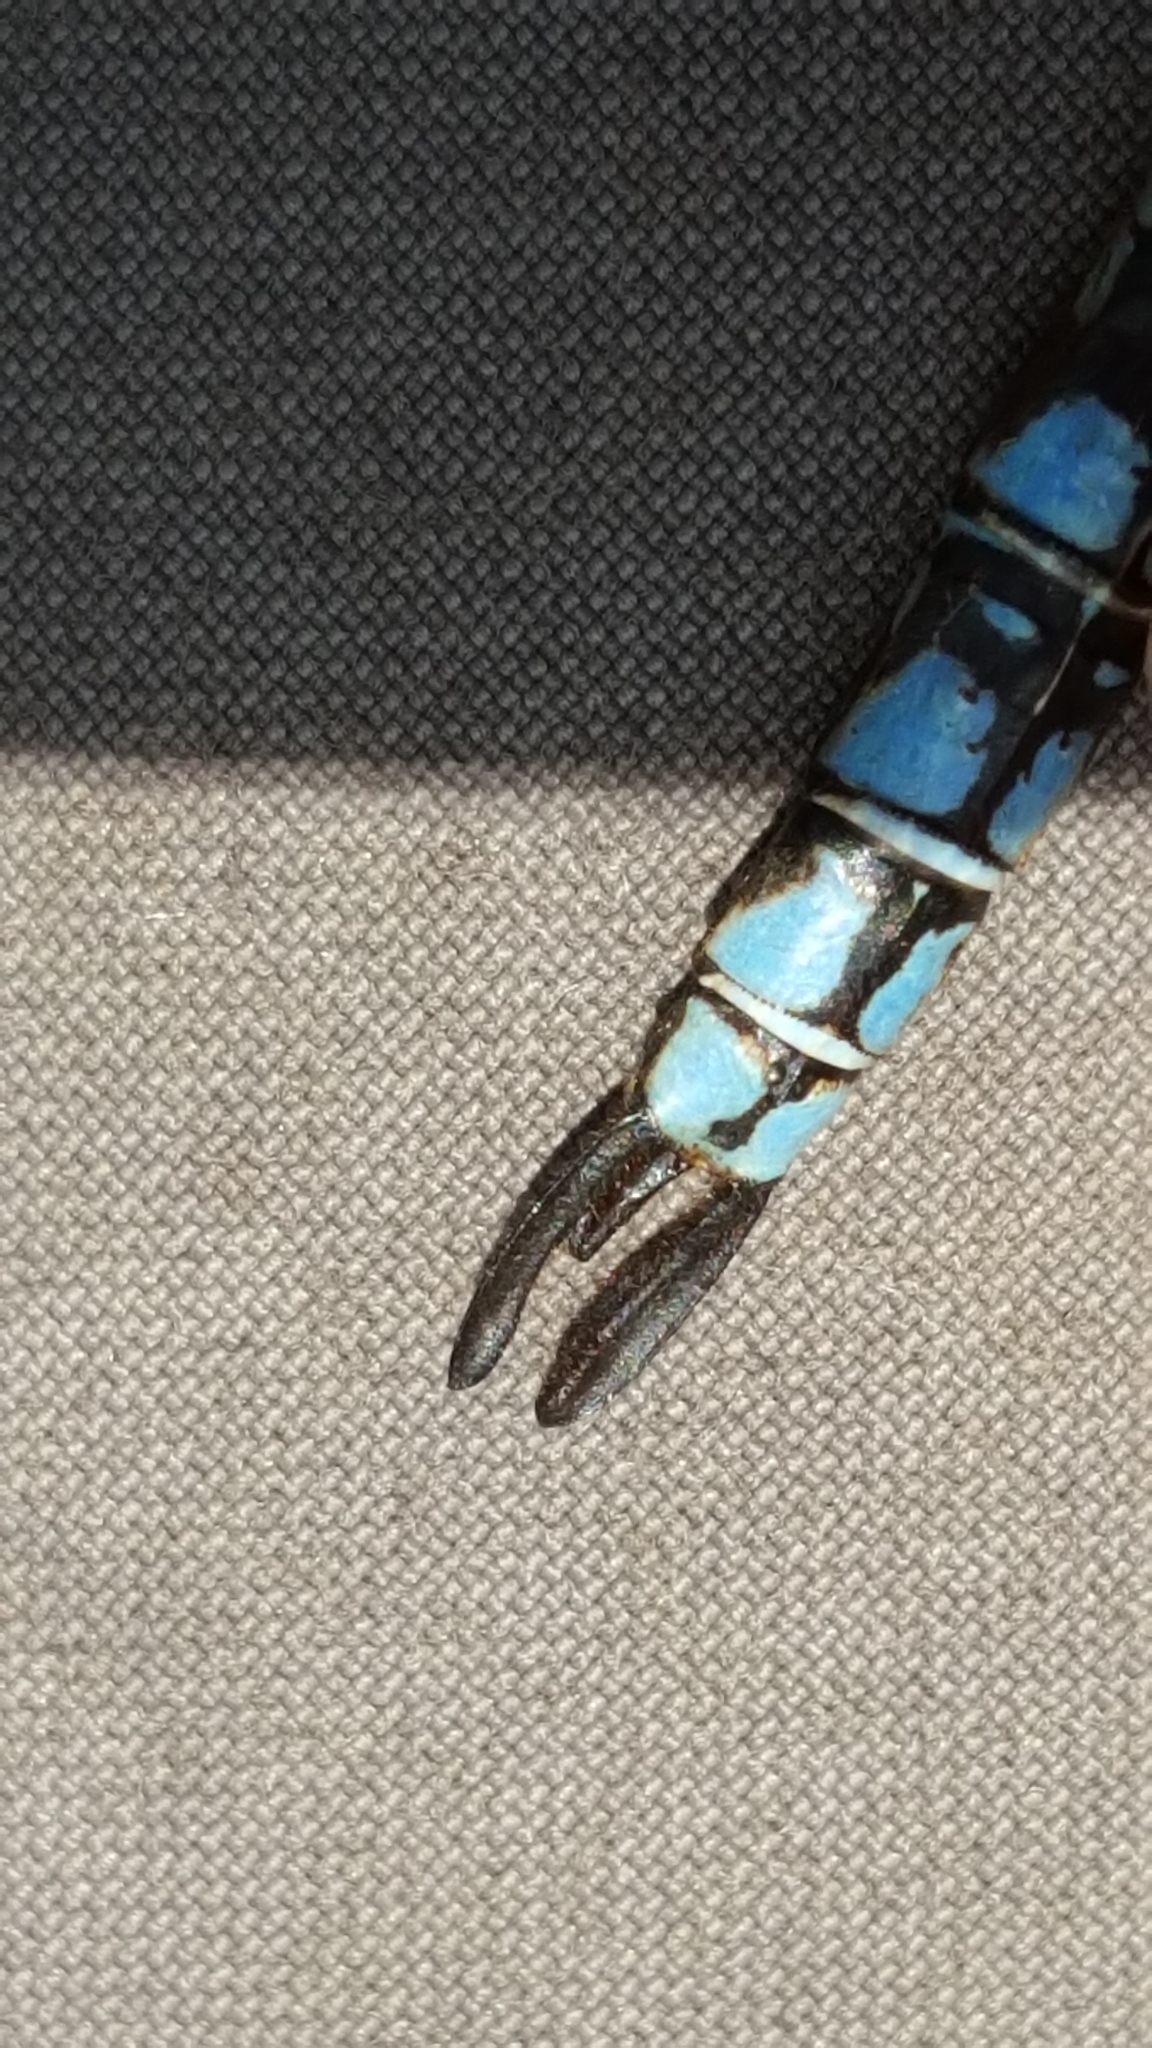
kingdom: Animalia
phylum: Arthropoda
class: Insecta
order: Odonata
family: Aeshnidae
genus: Aeshna
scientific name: Aeshna sitchensis
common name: Zigzag darner
